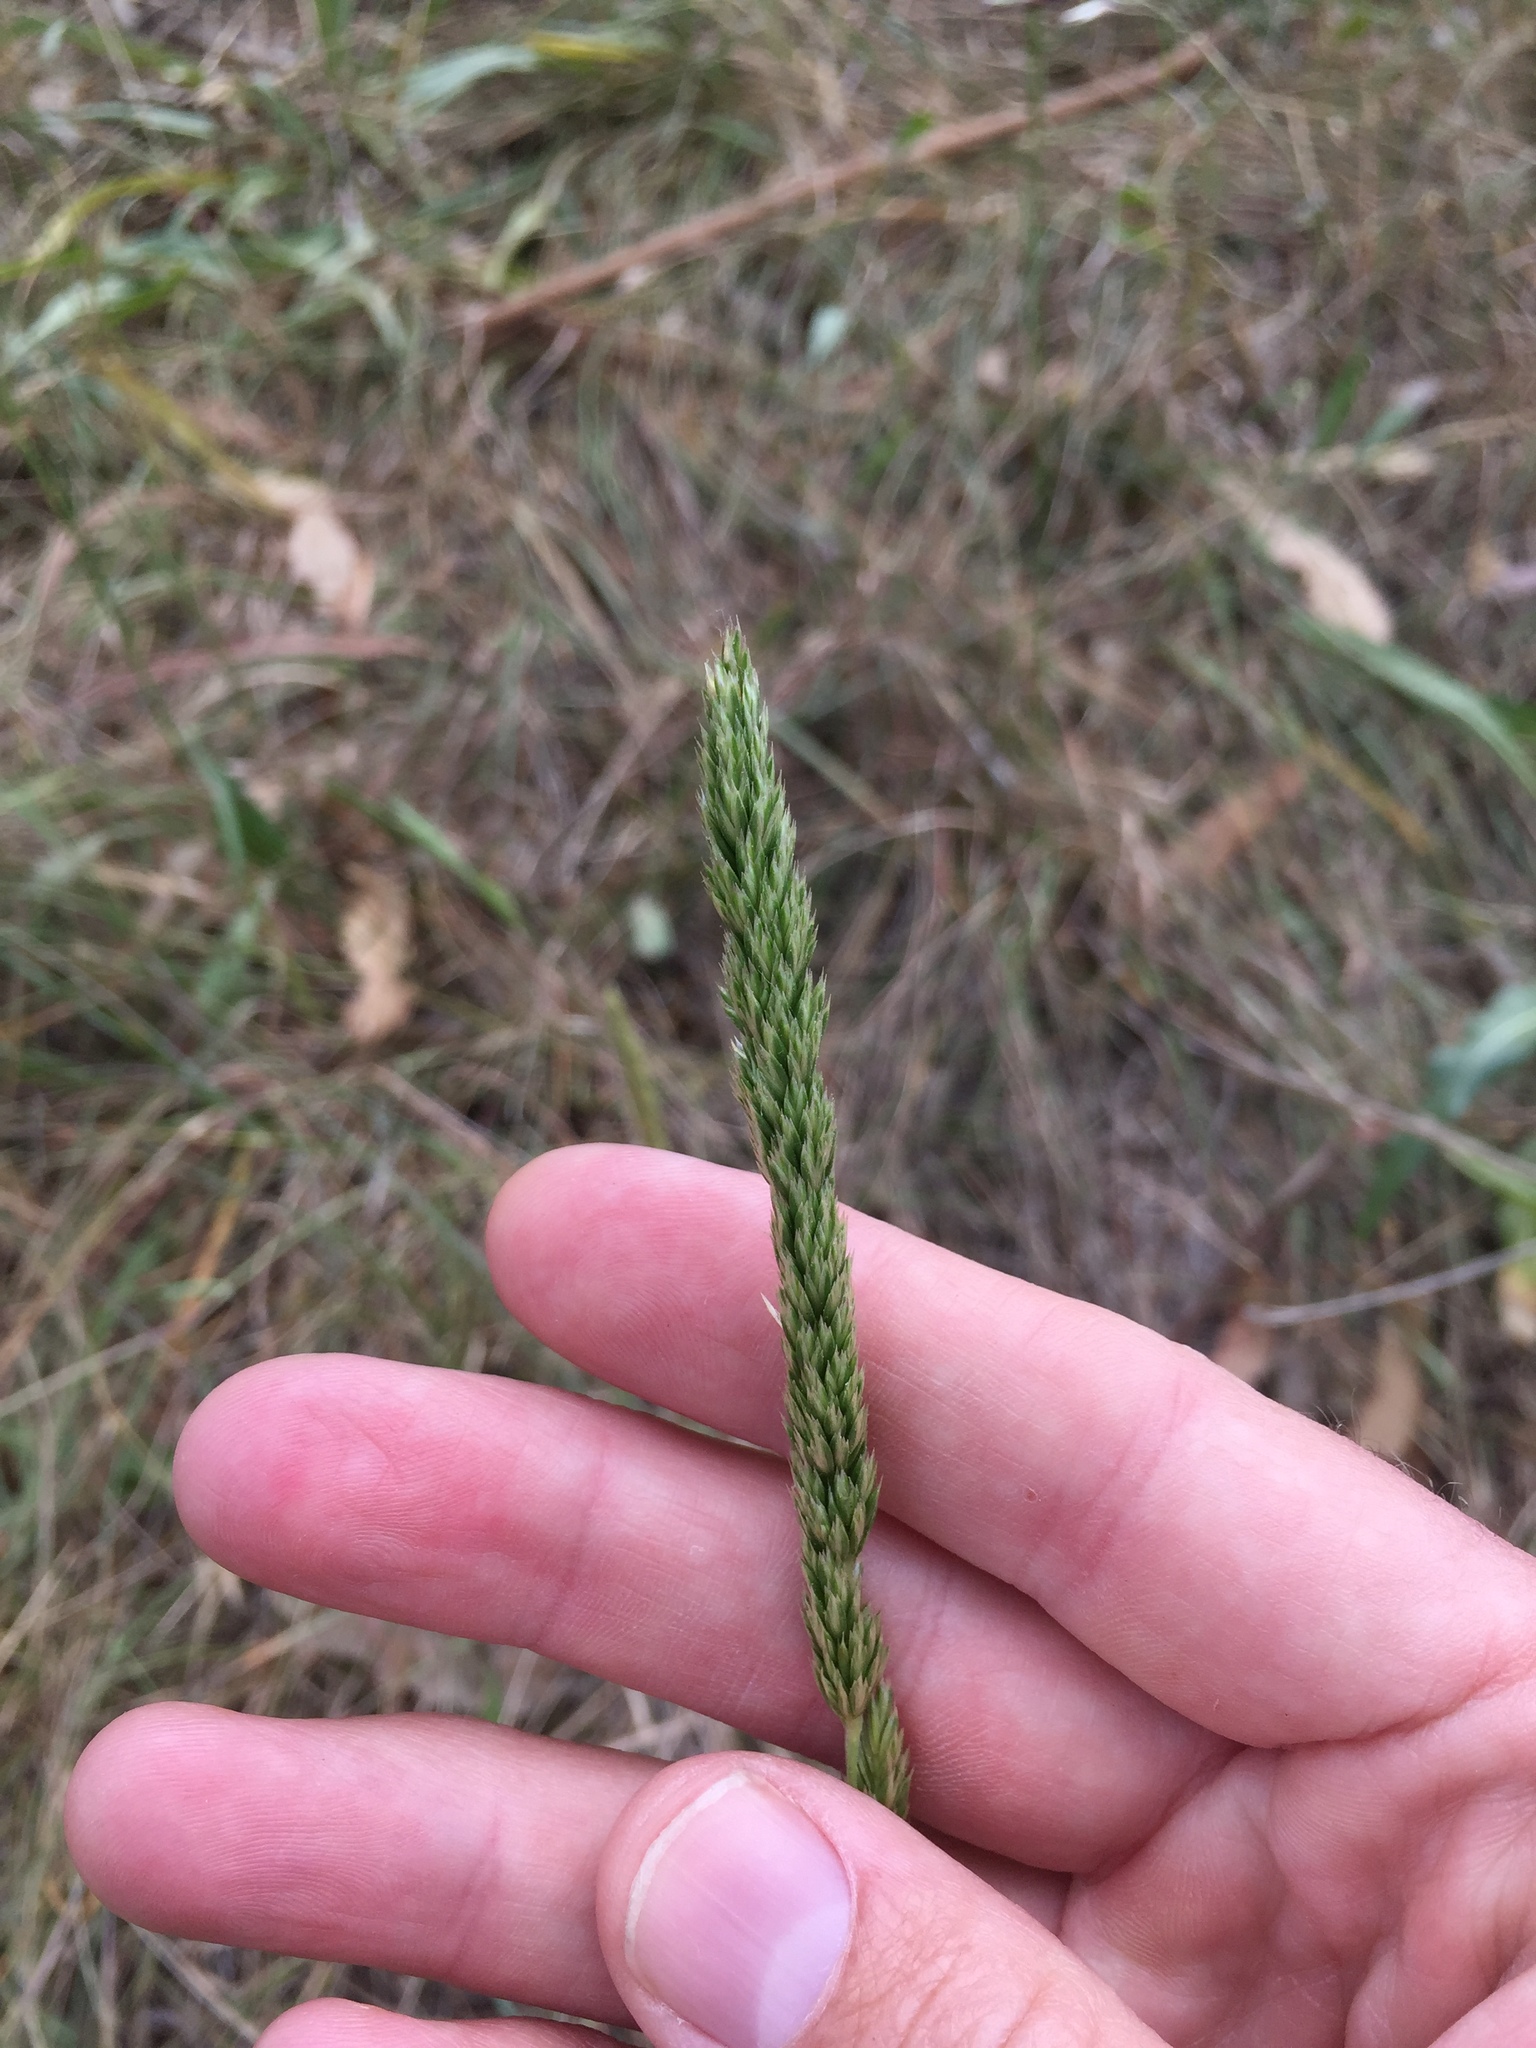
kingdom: Plantae
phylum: Tracheophyta
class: Liliopsida
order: Poales
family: Poaceae
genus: Koeleria
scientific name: Koeleria macrantha
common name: Crested hair-grass
